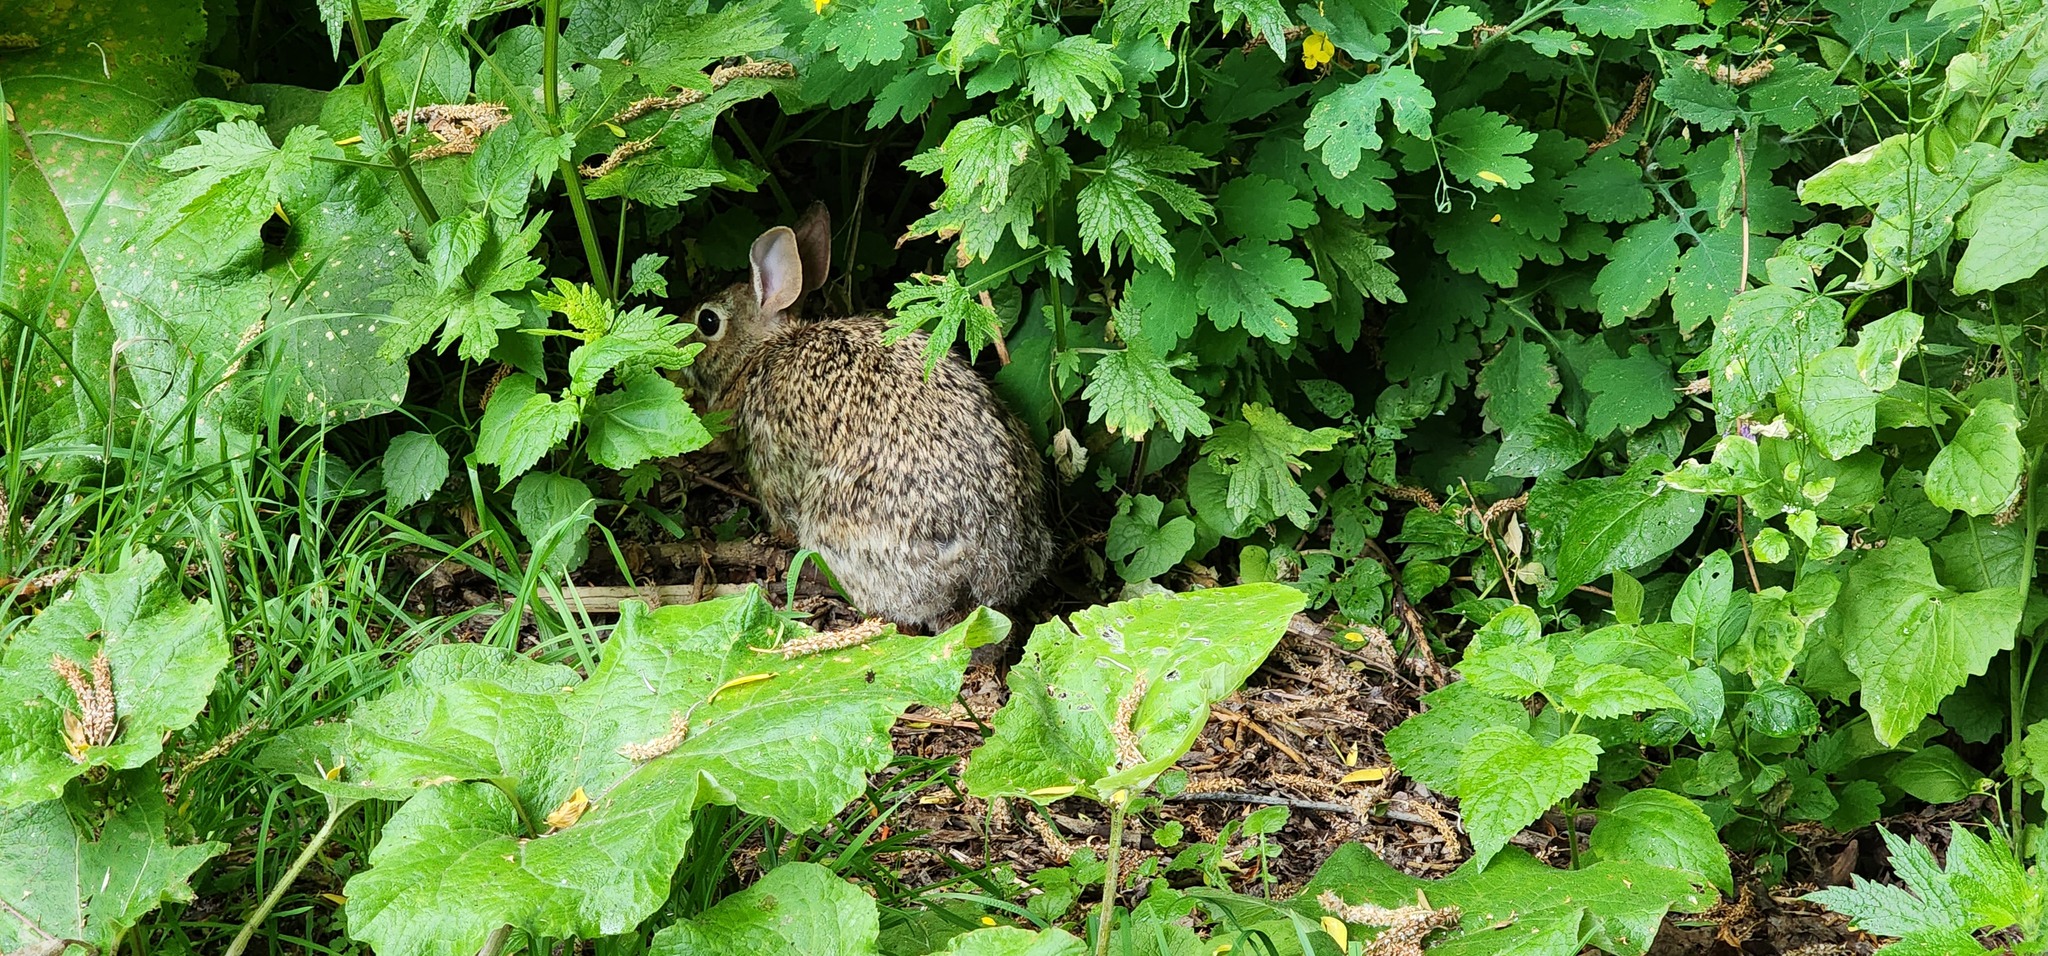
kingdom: Animalia
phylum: Chordata
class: Mammalia
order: Lagomorpha
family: Leporidae
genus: Sylvilagus
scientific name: Sylvilagus floridanus
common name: Eastern cottontail
